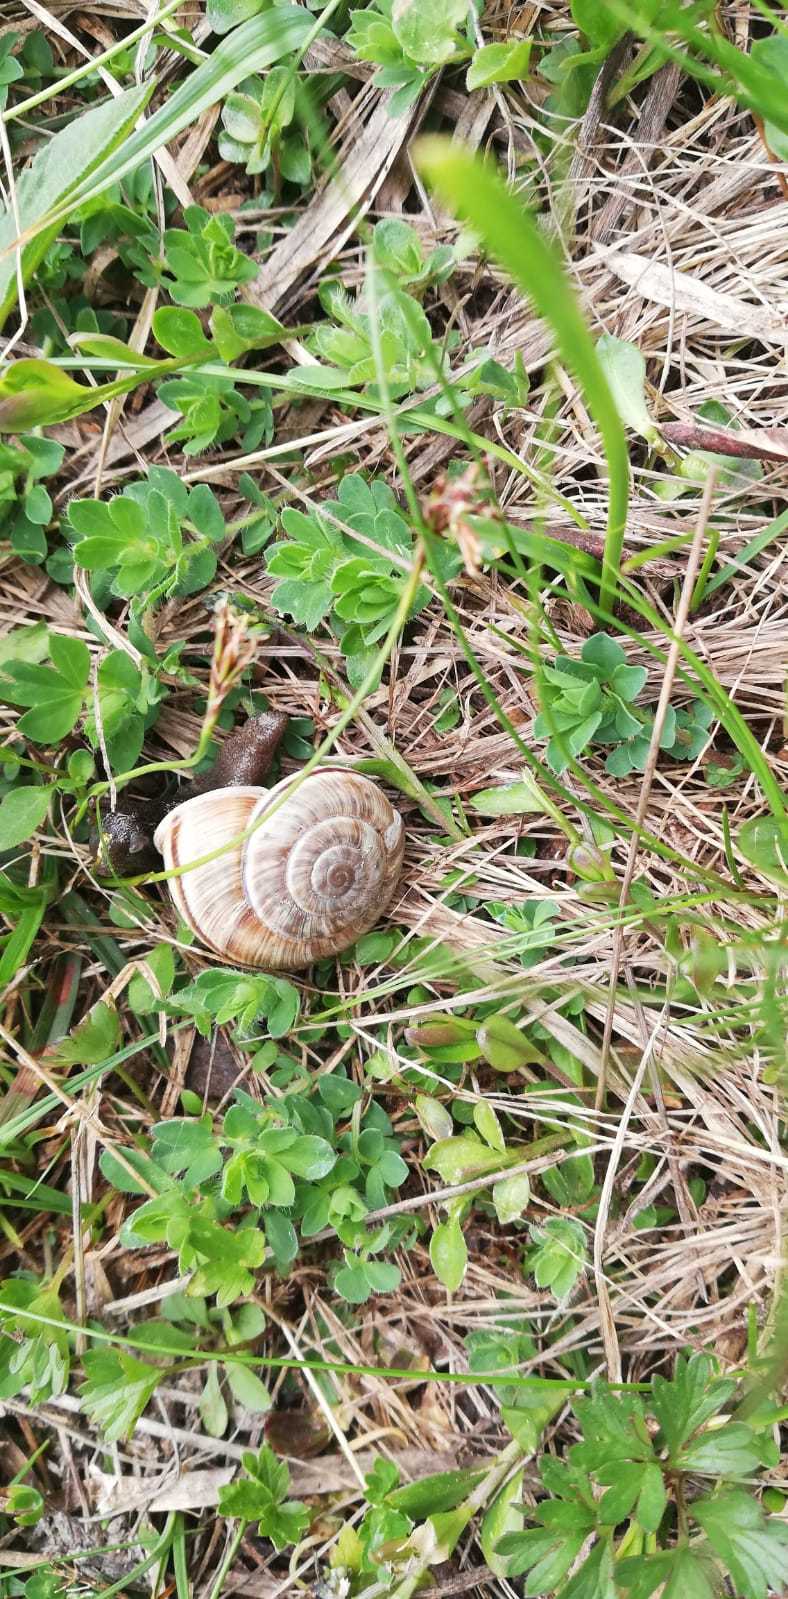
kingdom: Animalia
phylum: Mollusca
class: Gastropoda
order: Stylommatophora
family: Helicidae
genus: Chilostoma
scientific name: Chilostoma cingulatum
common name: Great rock snail
